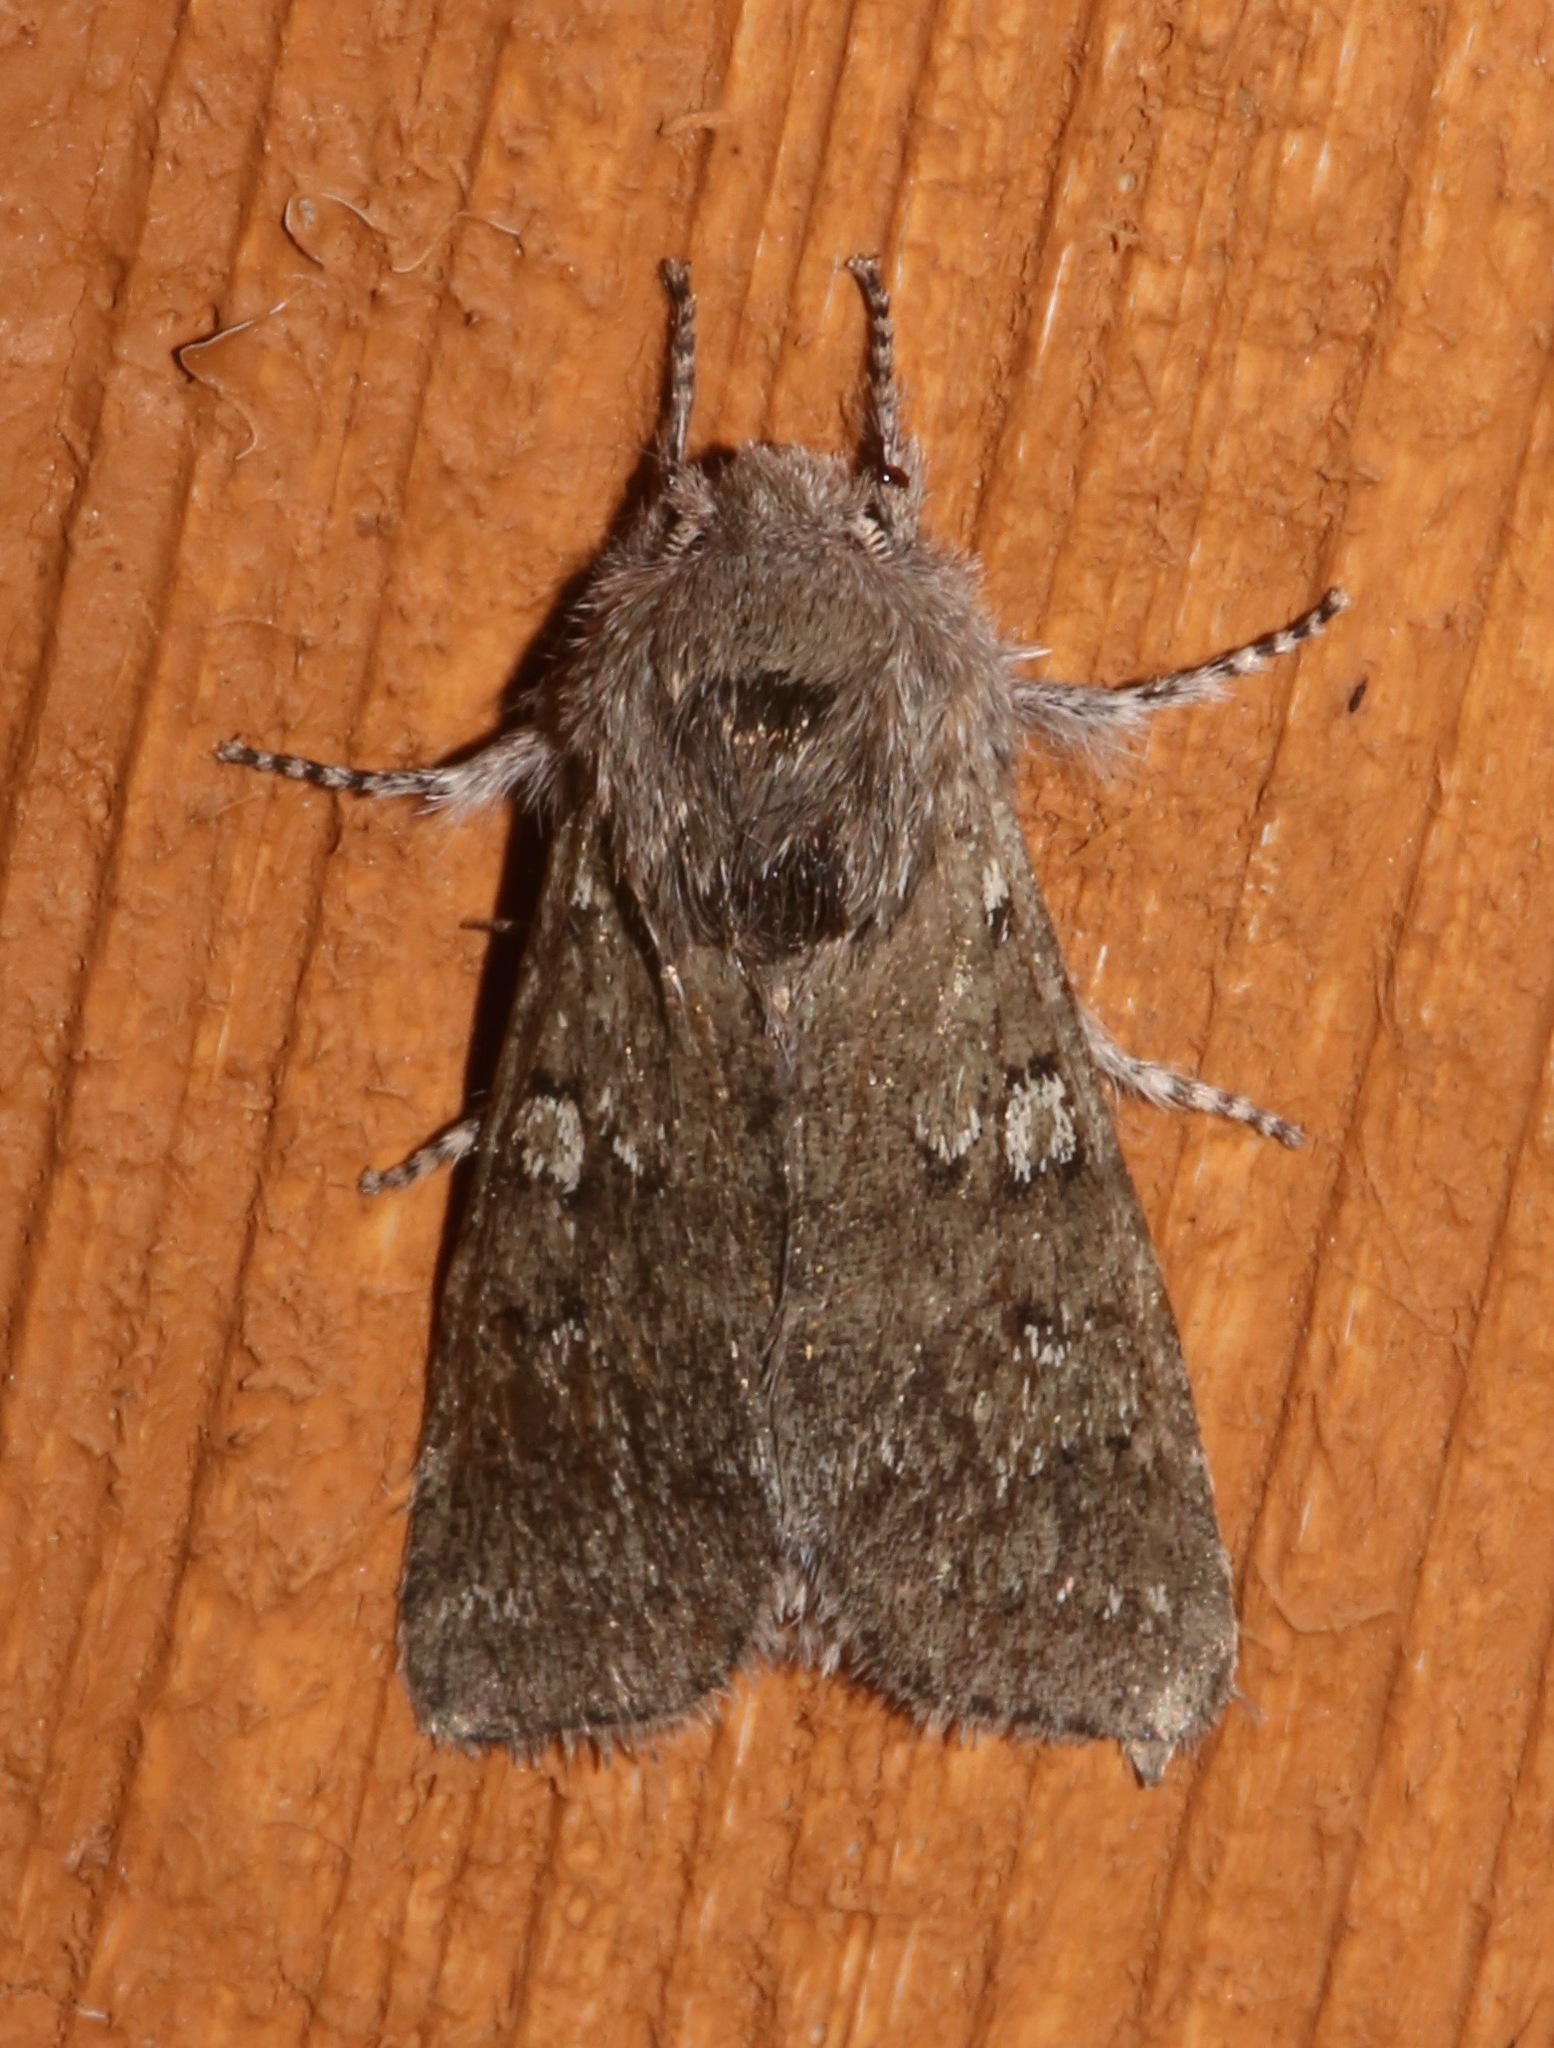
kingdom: Animalia
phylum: Arthropoda
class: Insecta
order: Lepidoptera
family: Noctuidae
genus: Psaphida
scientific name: Psaphida rolandi
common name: Roland's sallow
